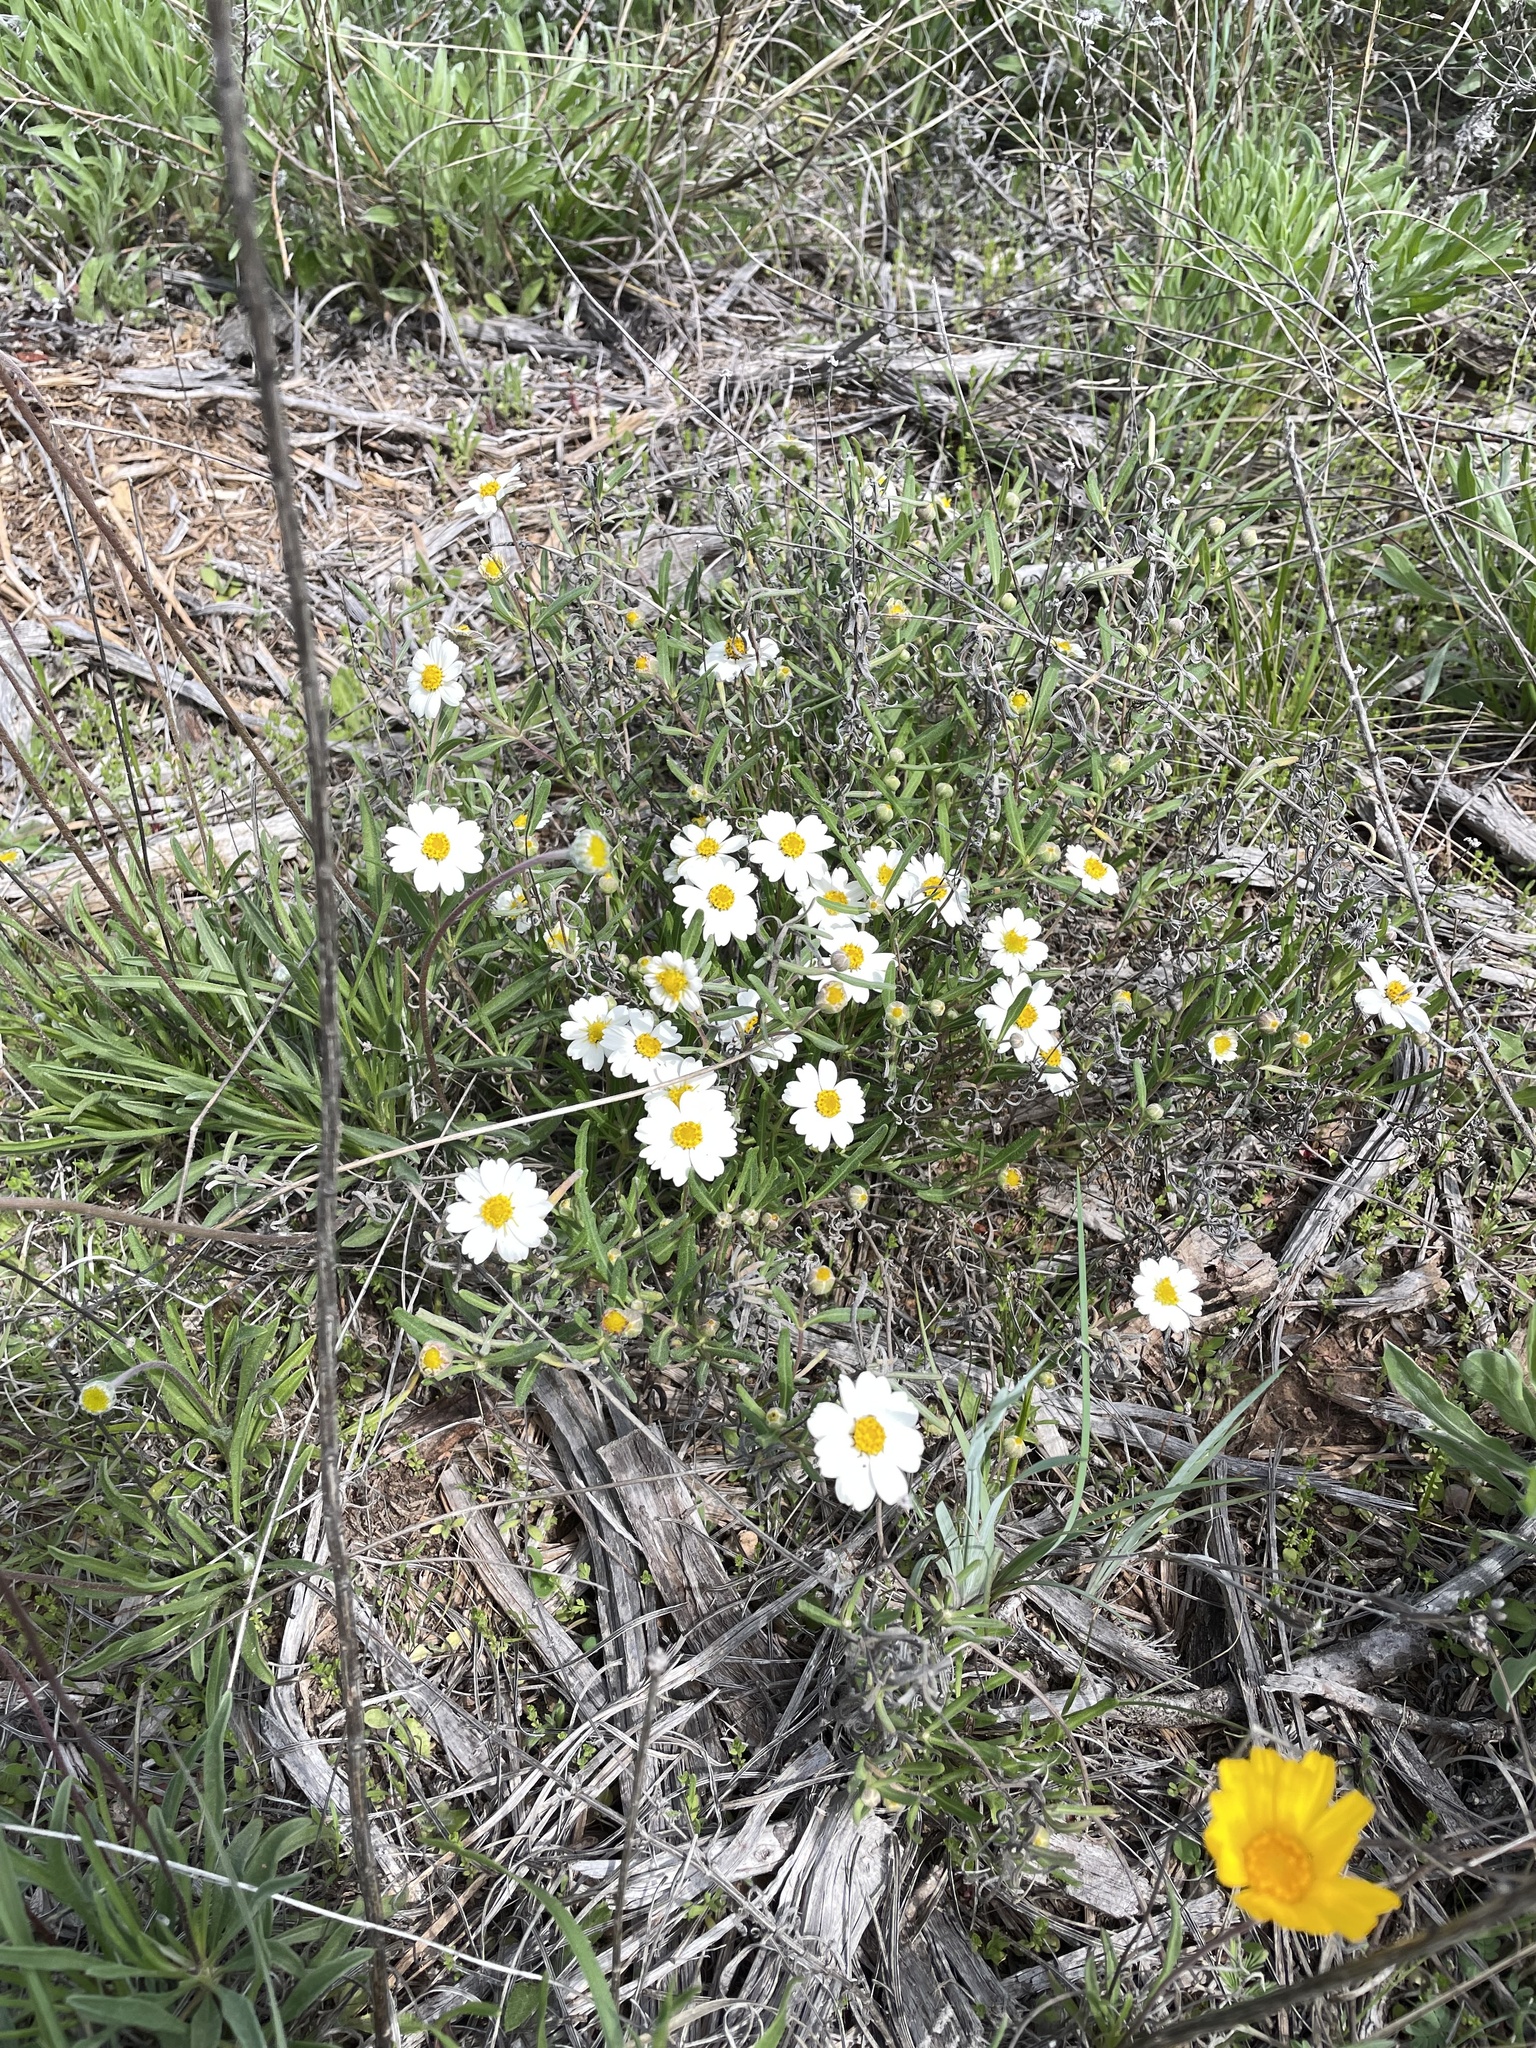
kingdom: Plantae
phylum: Tracheophyta
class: Magnoliopsida
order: Asterales
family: Asteraceae
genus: Melampodium
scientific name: Melampodium leucanthum
